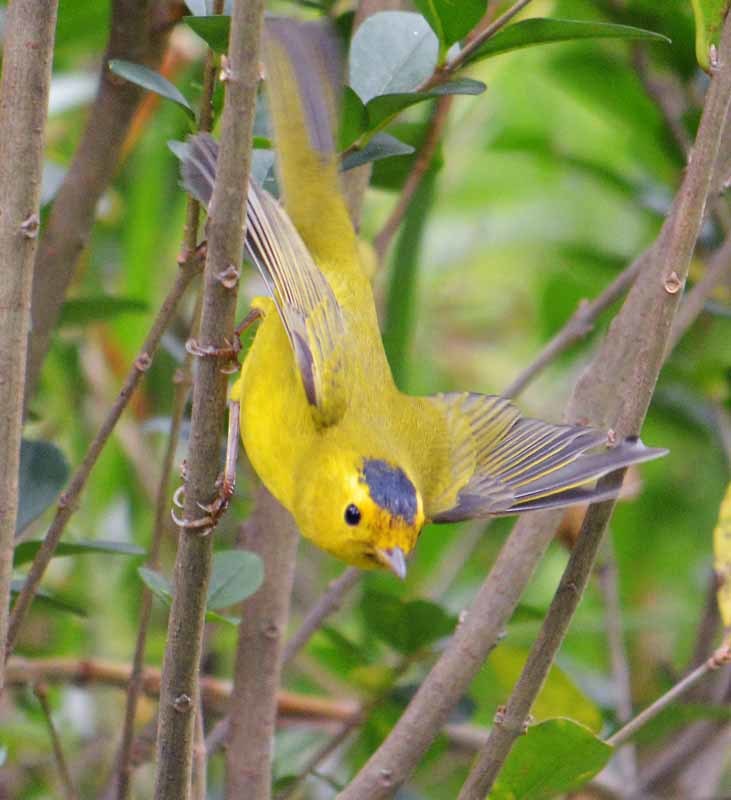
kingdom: Animalia
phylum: Chordata
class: Aves
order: Passeriformes
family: Parulidae
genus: Cardellina
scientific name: Cardellina pusilla
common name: Wilson's warbler
